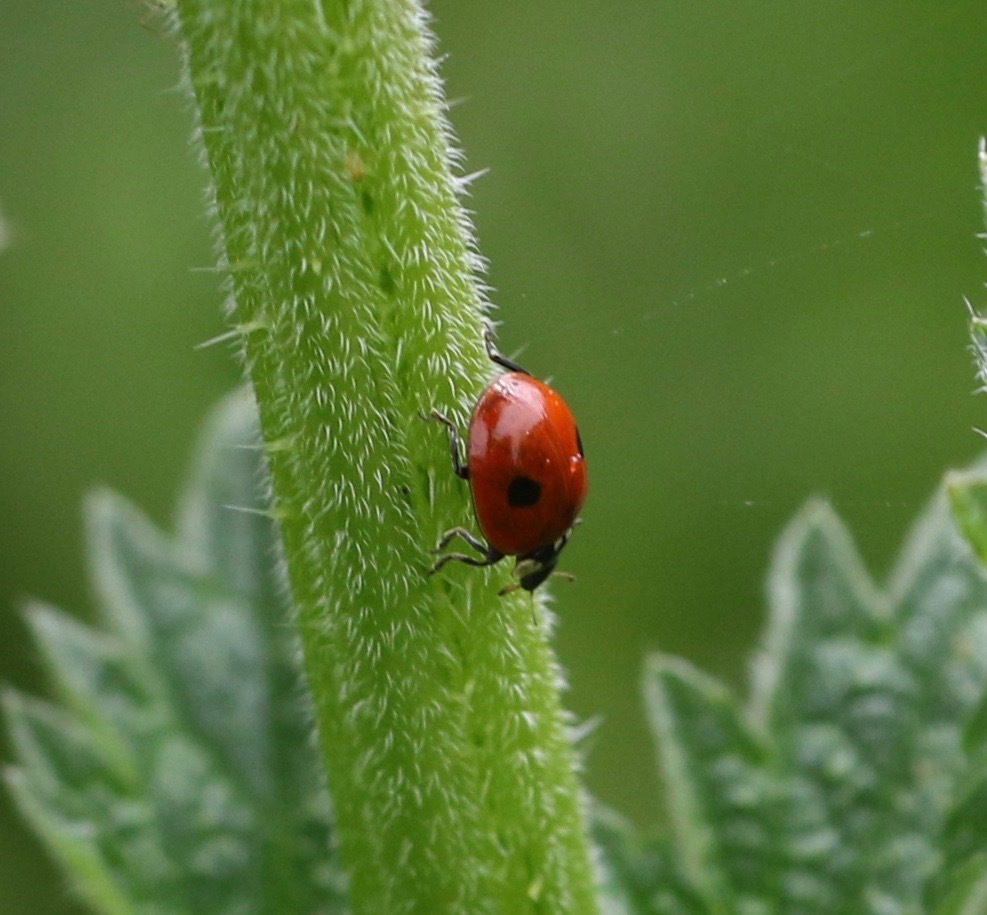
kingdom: Animalia
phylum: Arthropoda
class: Insecta
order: Coleoptera
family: Coccinellidae
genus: Adalia
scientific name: Adalia bipunctata
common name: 2-spot ladybird
